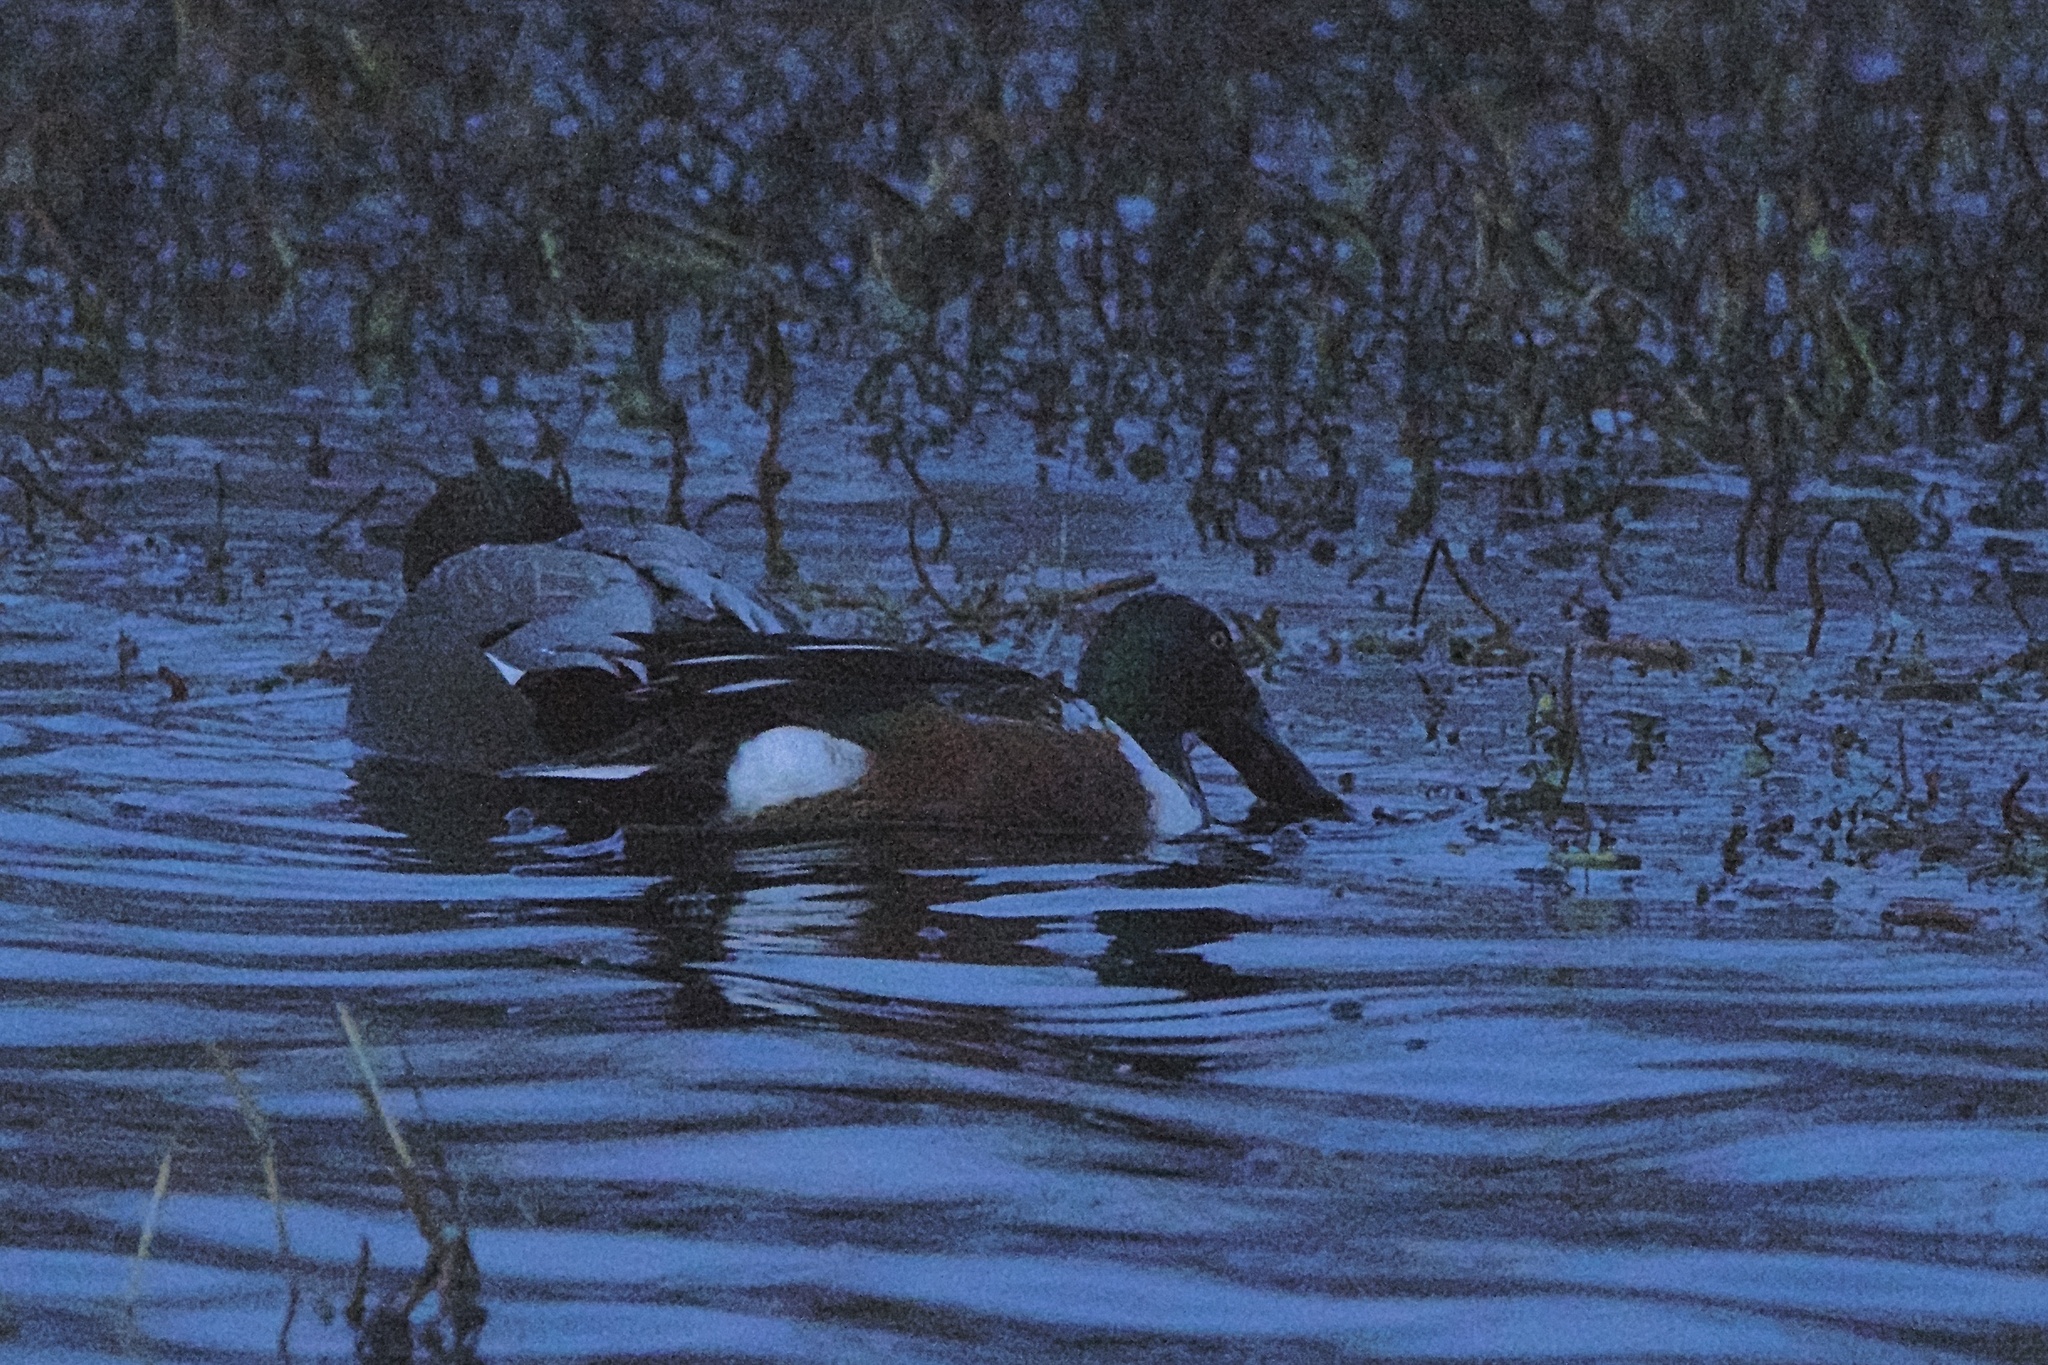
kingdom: Animalia
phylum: Chordata
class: Aves
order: Anseriformes
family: Anatidae
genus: Spatula
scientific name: Spatula clypeata
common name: Northern shoveler
